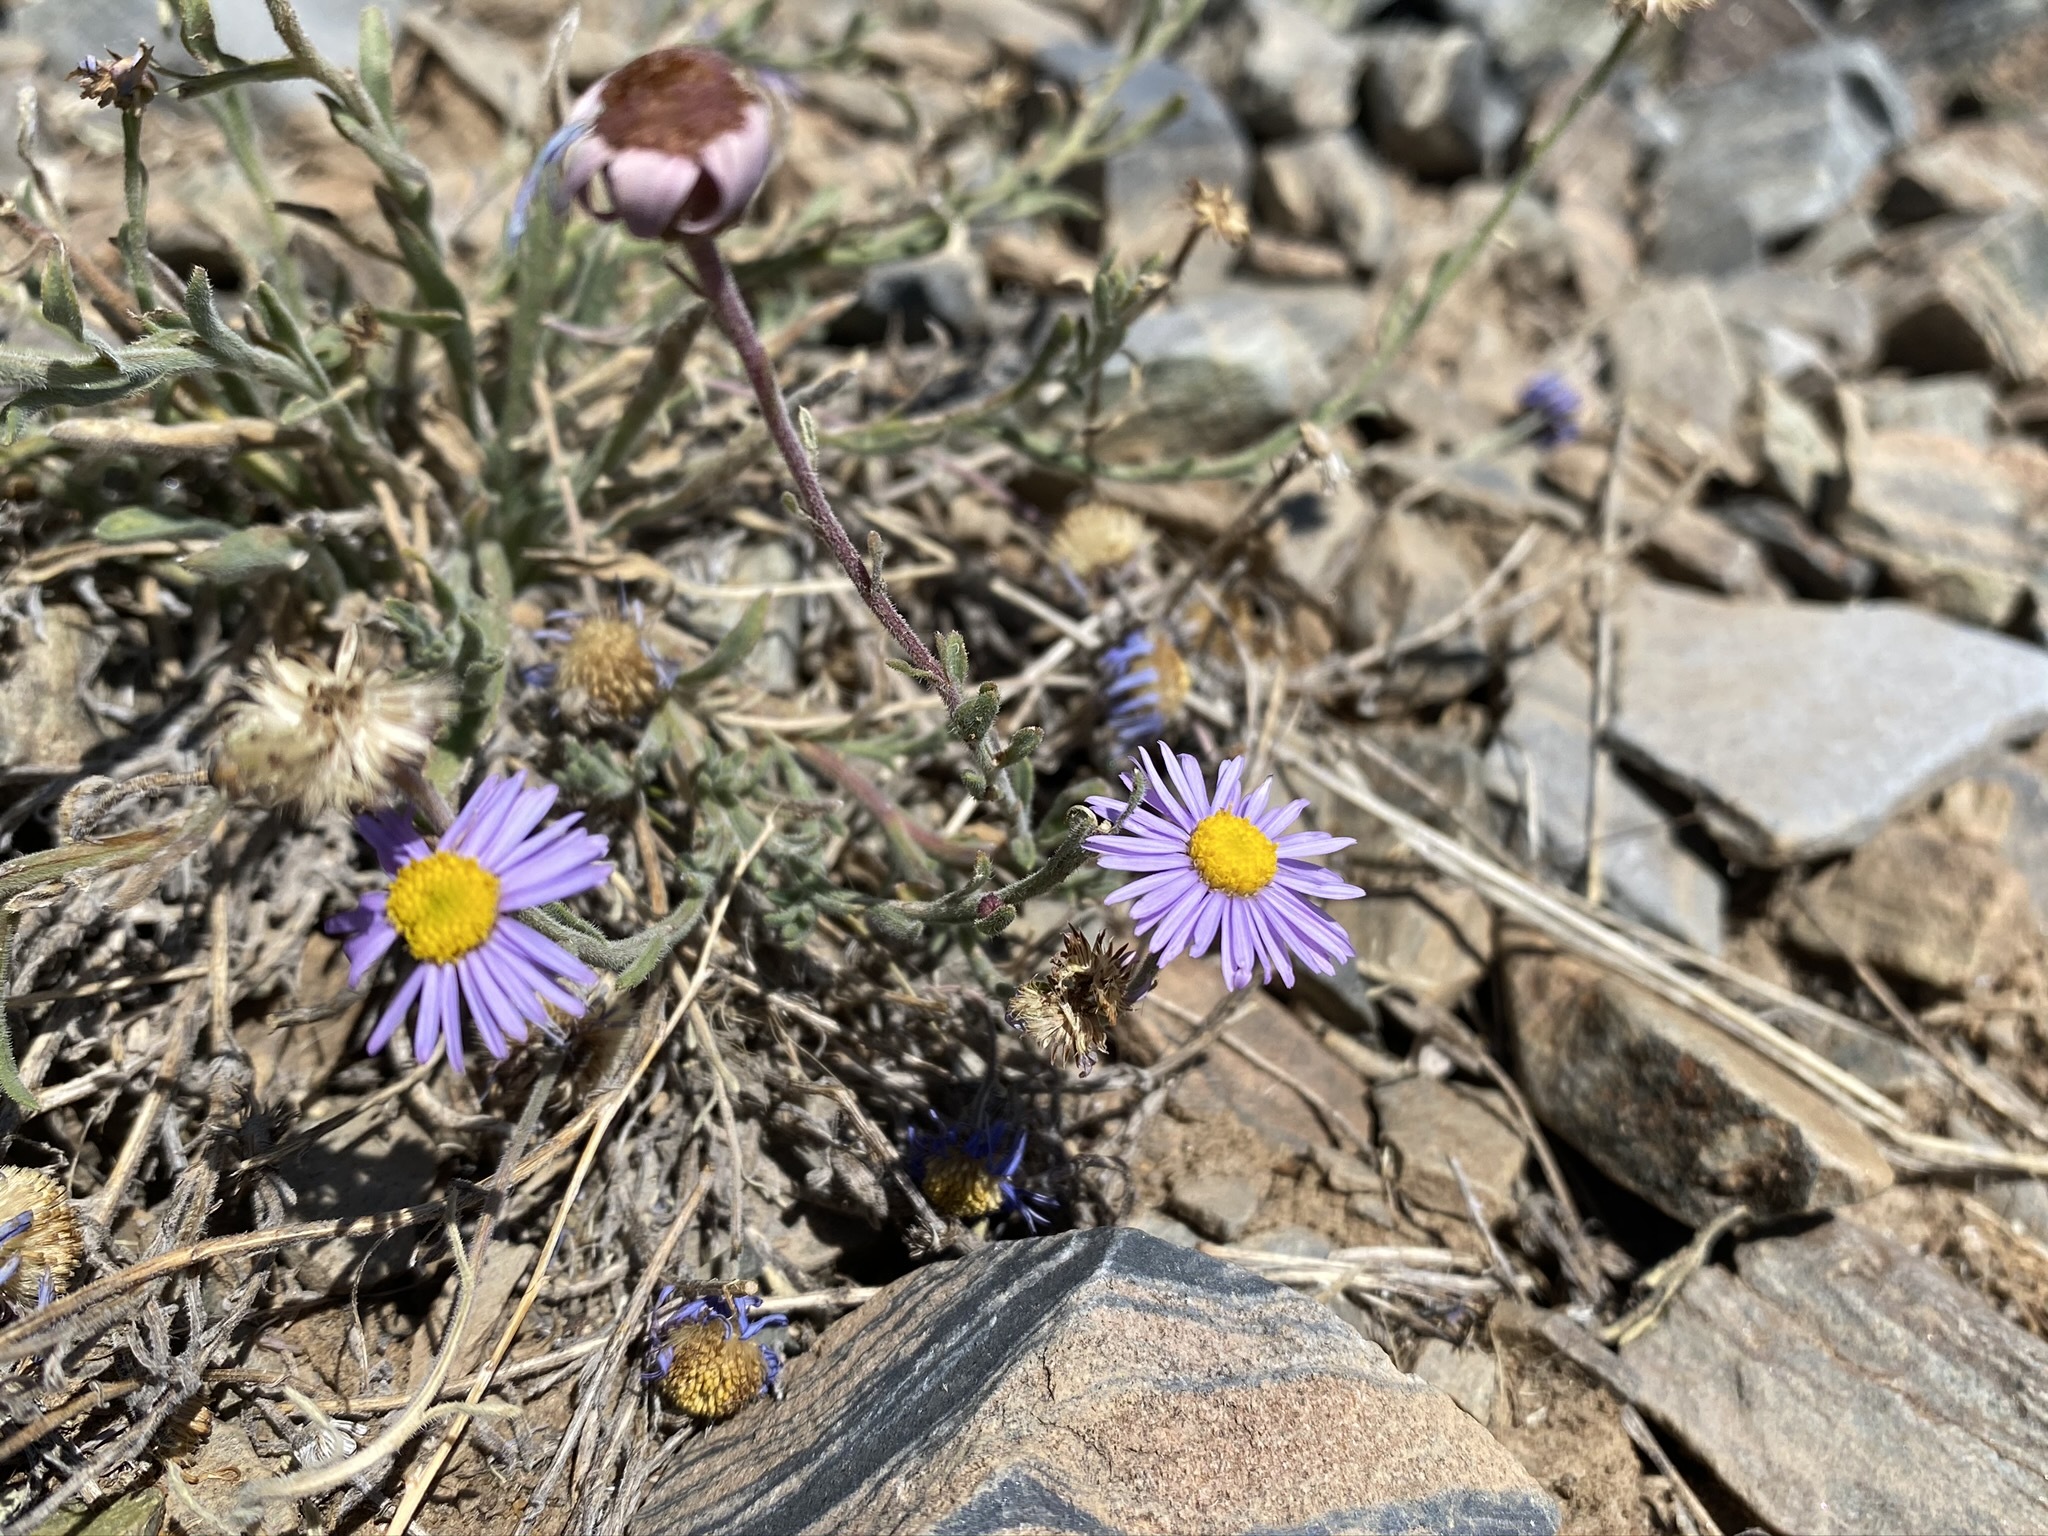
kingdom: Plantae
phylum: Tracheophyta
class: Magnoliopsida
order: Asterales
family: Asteraceae
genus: Erigeron
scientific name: Erigeron clokeyi
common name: Clokey's fleabane
